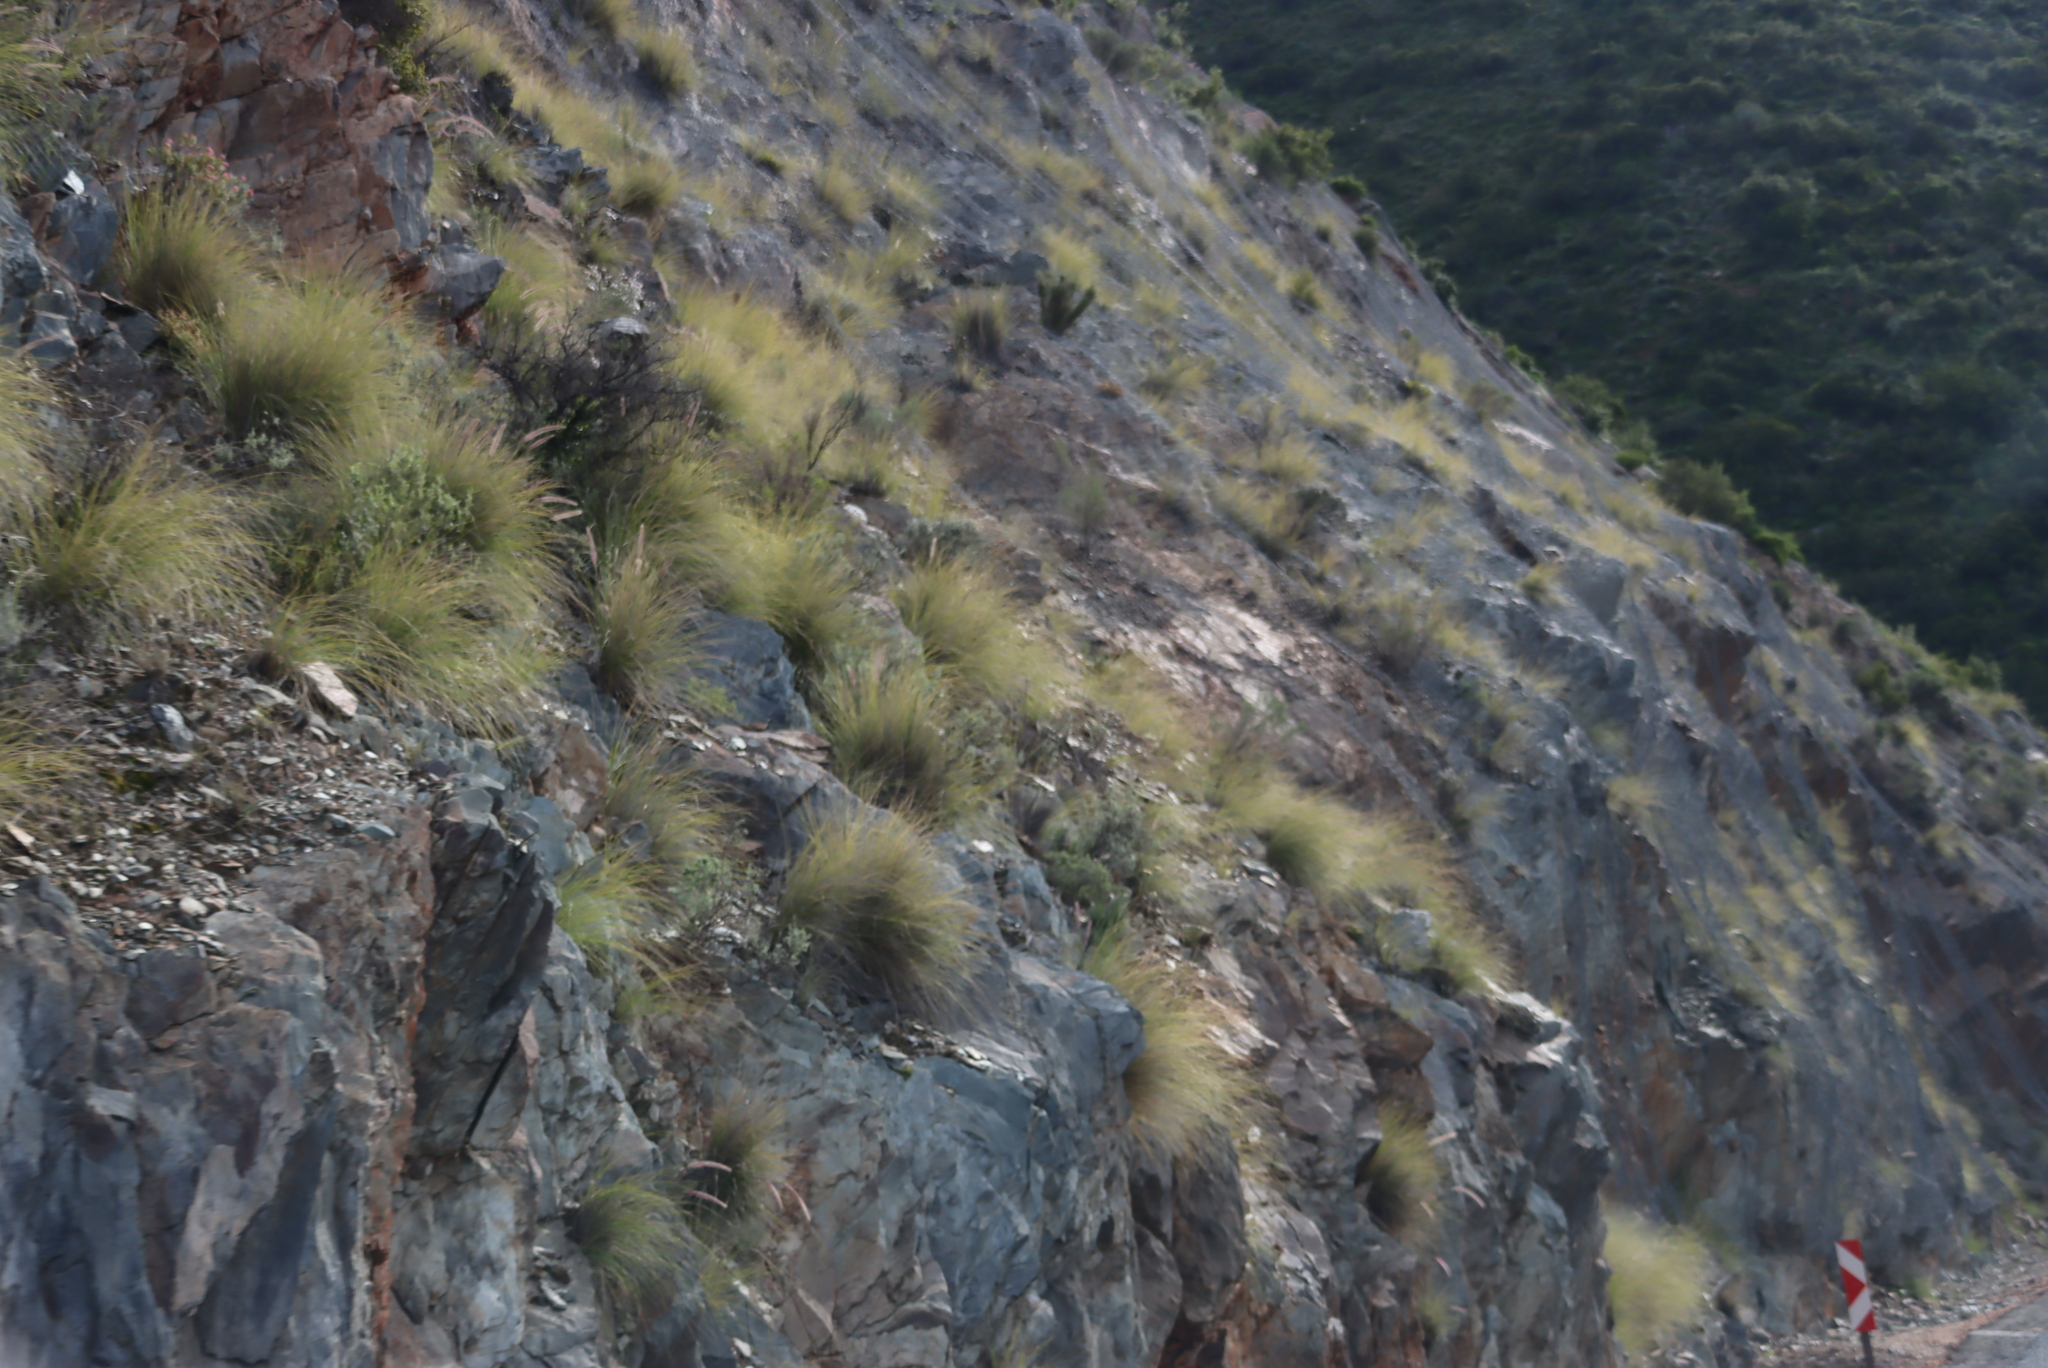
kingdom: Plantae
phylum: Tracheophyta
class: Liliopsida
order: Poales
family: Poaceae
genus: Cenchrus
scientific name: Cenchrus setaceus
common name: Crimson fountaingrass
